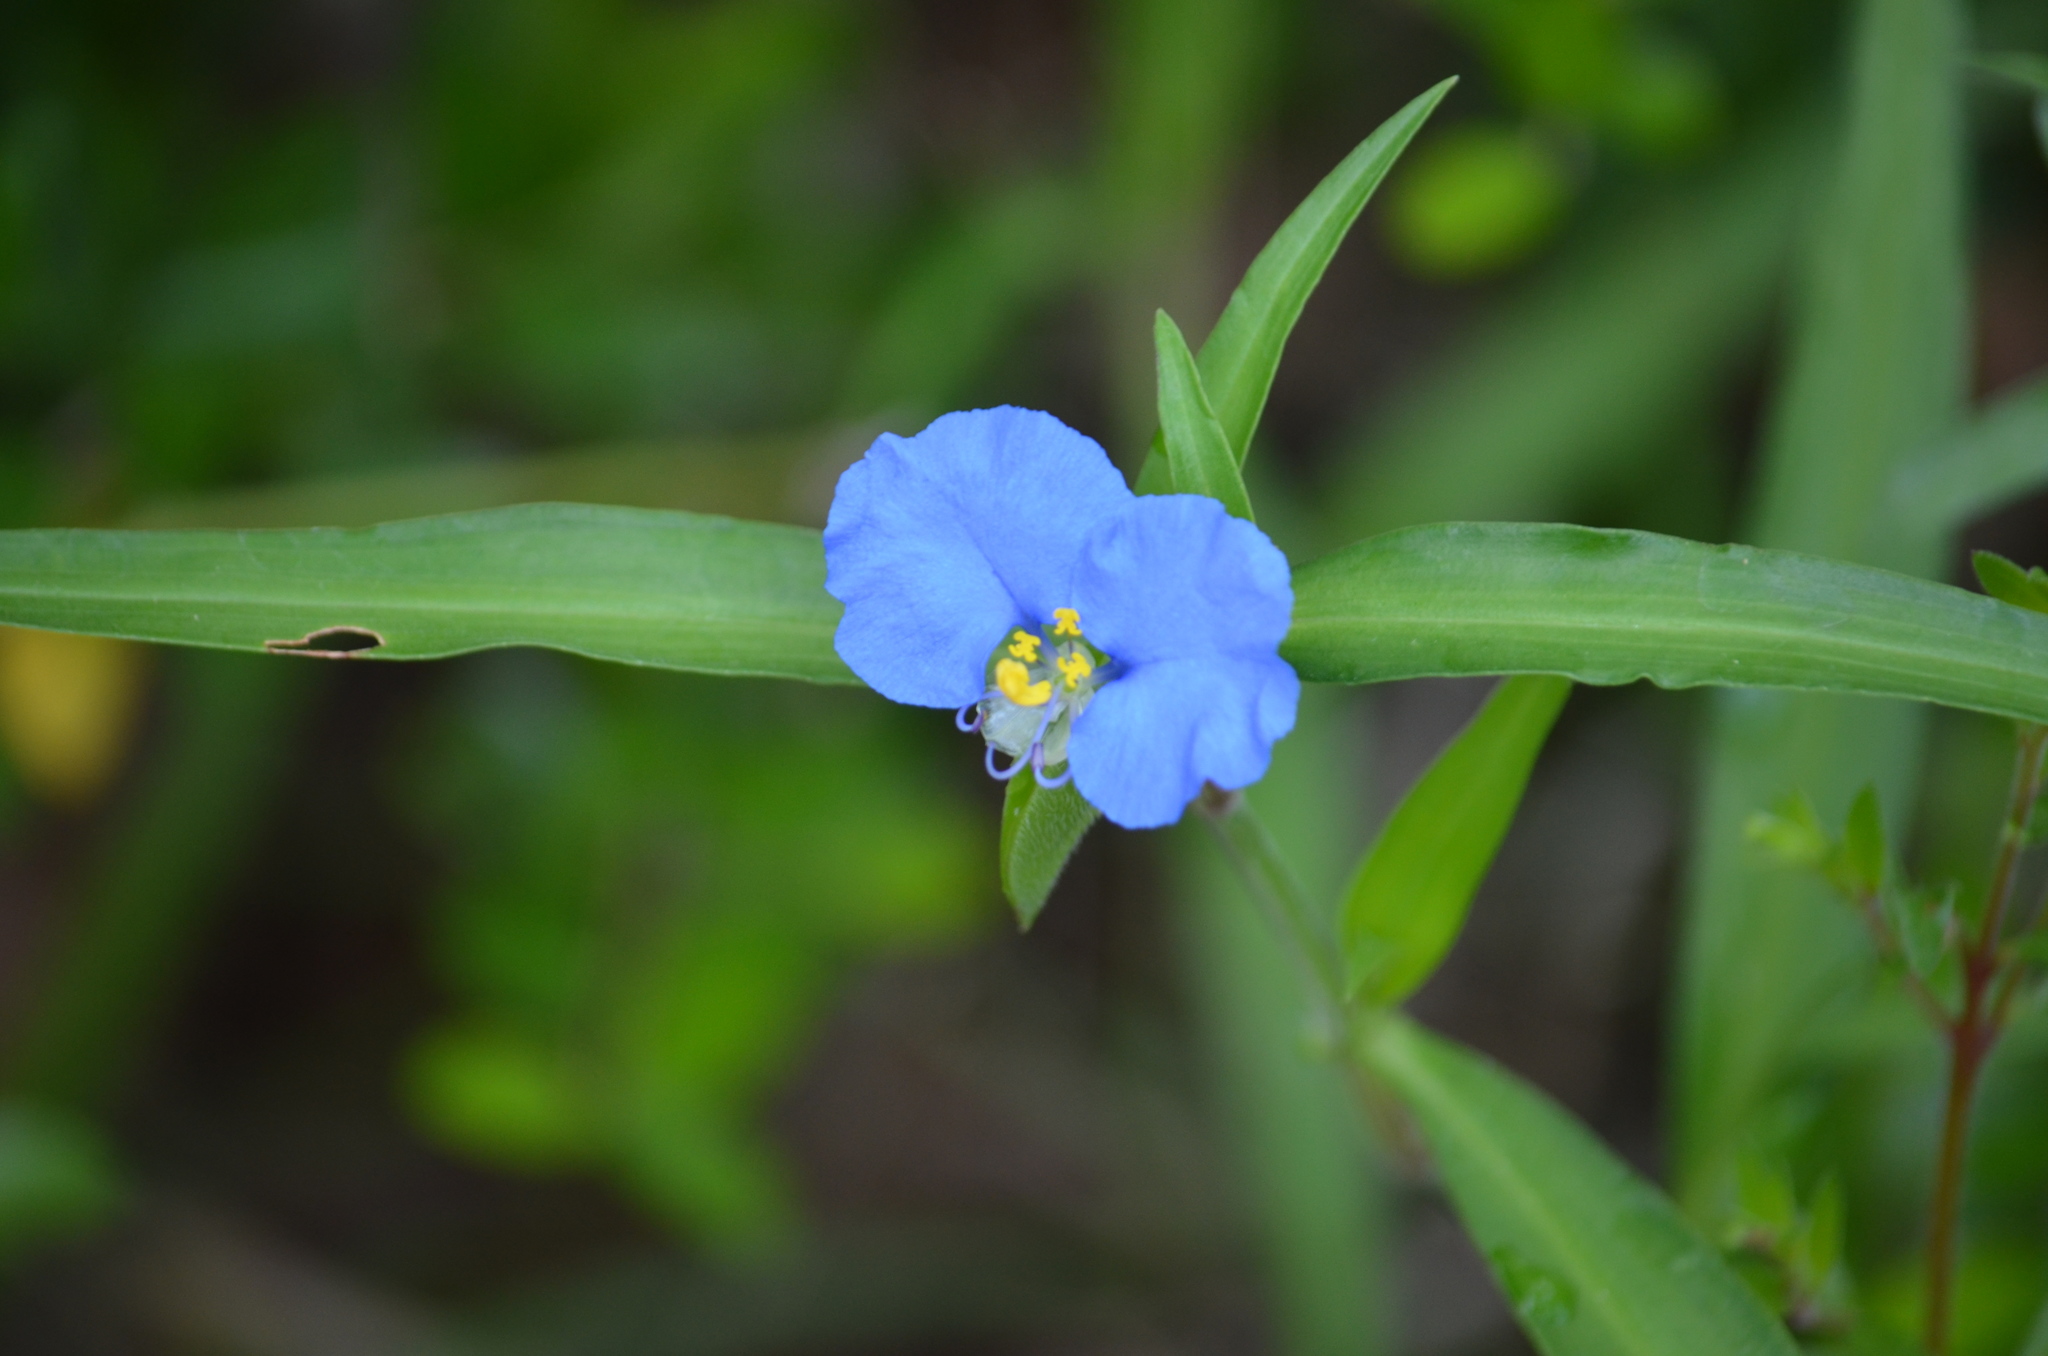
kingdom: Plantae
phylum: Tracheophyta
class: Liliopsida
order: Commelinales
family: Commelinaceae
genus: Commelina
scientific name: Commelina erecta
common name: Blousel blommetjie
